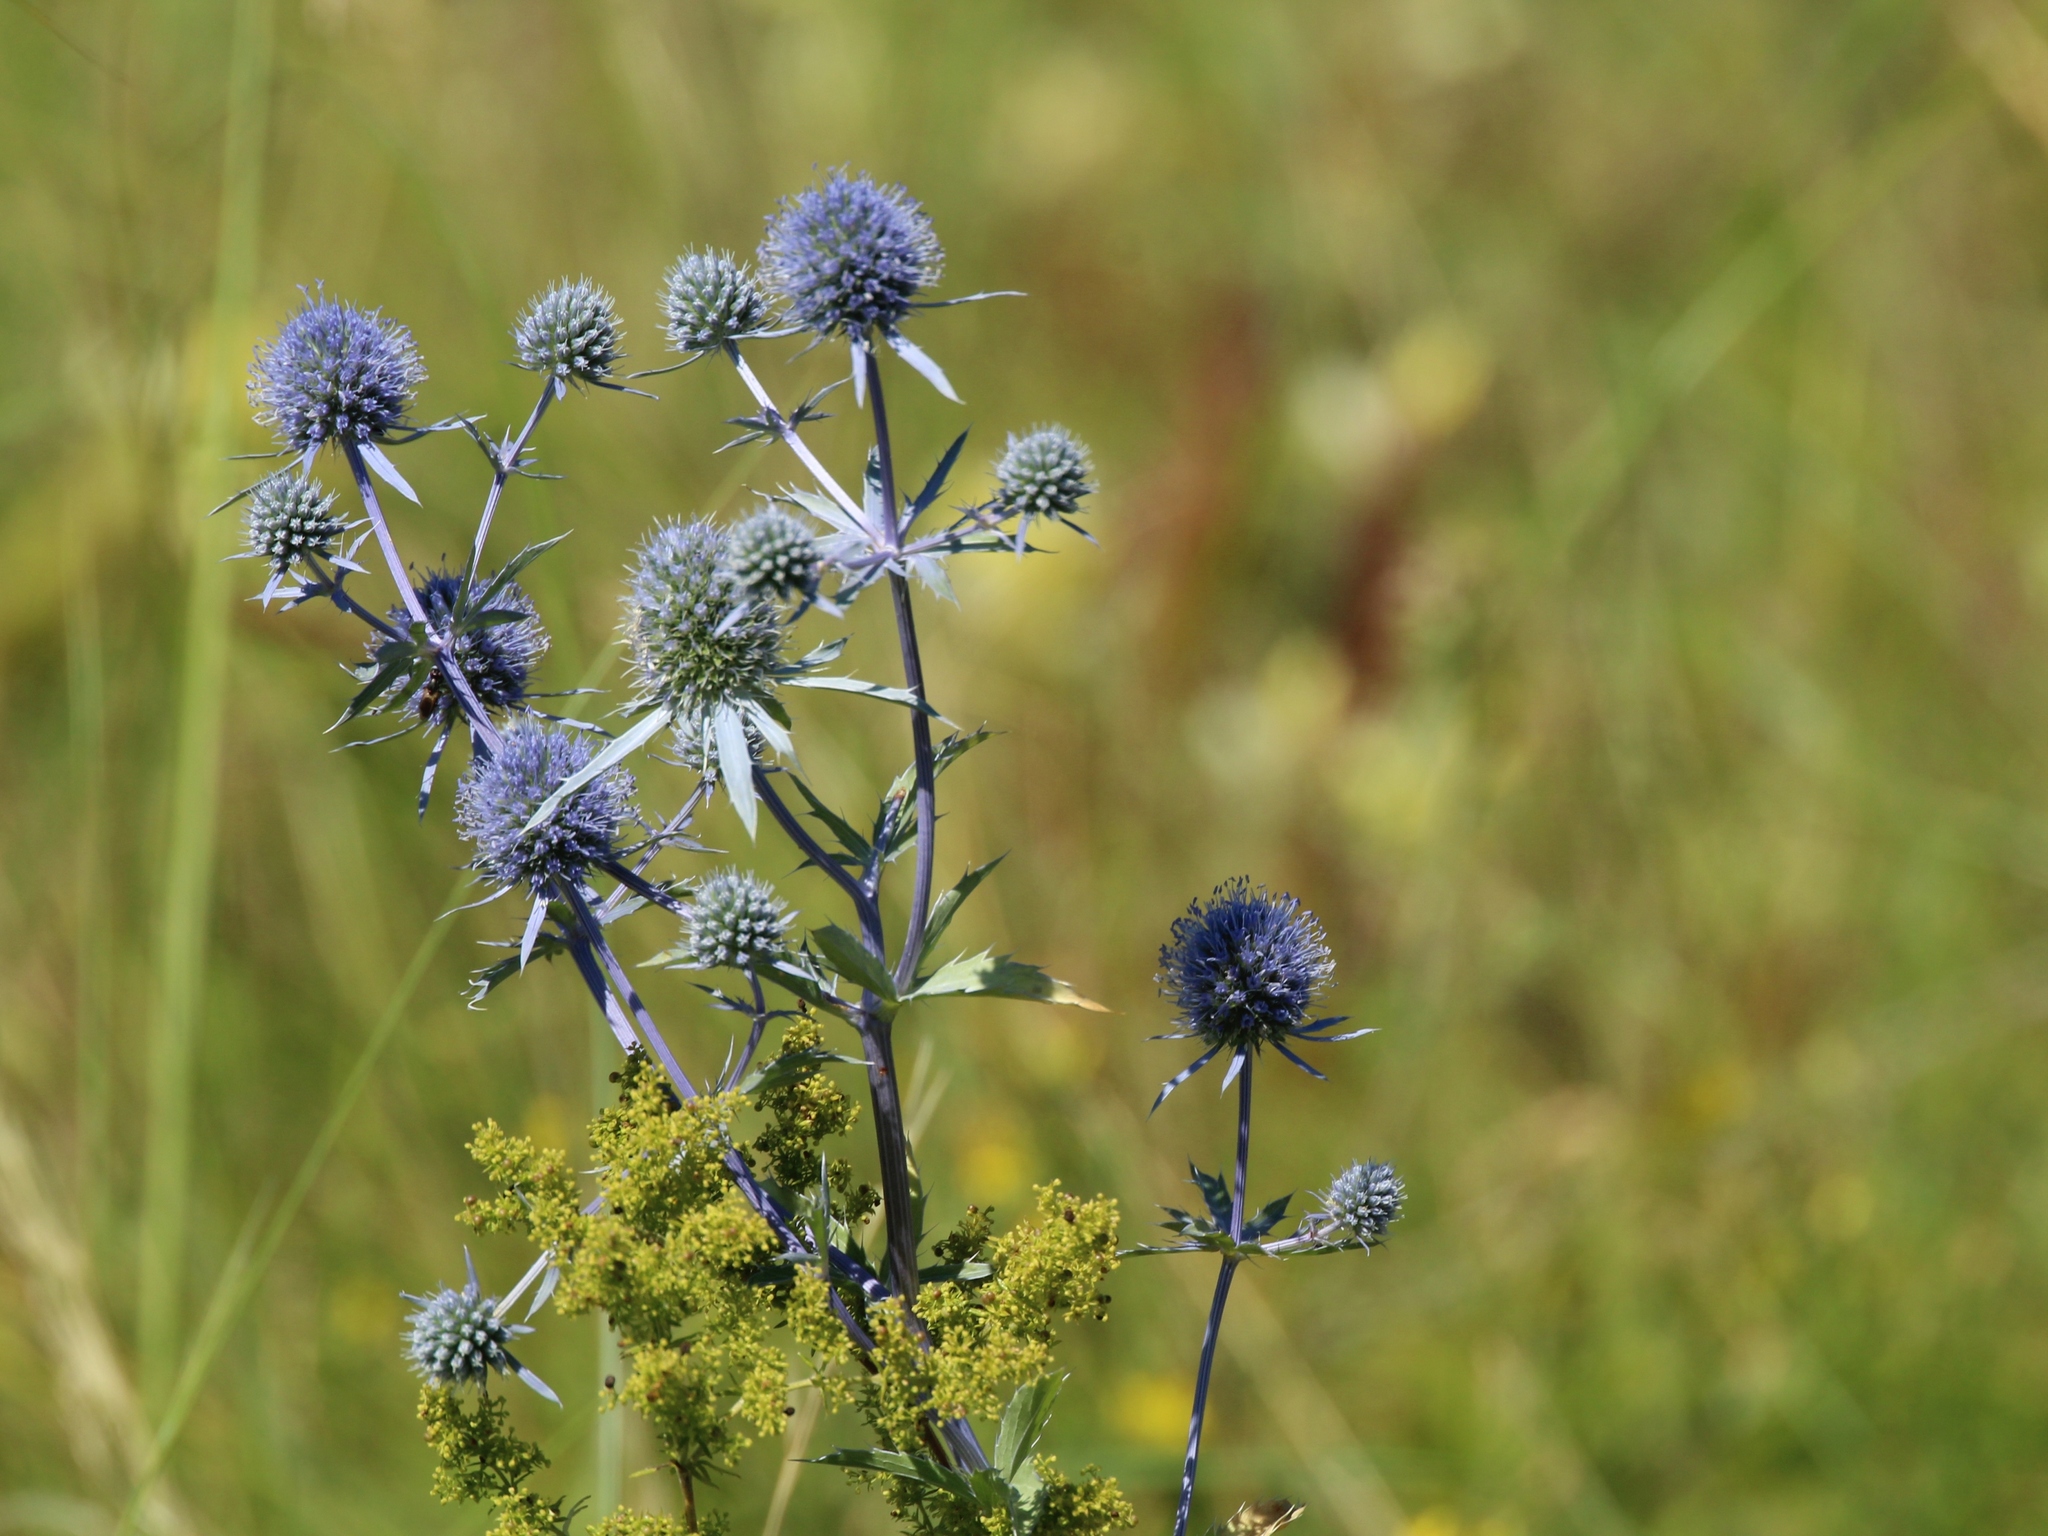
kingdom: Plantae
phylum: Tracheophyta
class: Magnoliopsida
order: Apiales
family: Apiaceae
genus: Eryngium
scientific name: Eryngium planum
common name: Blue eryngo
